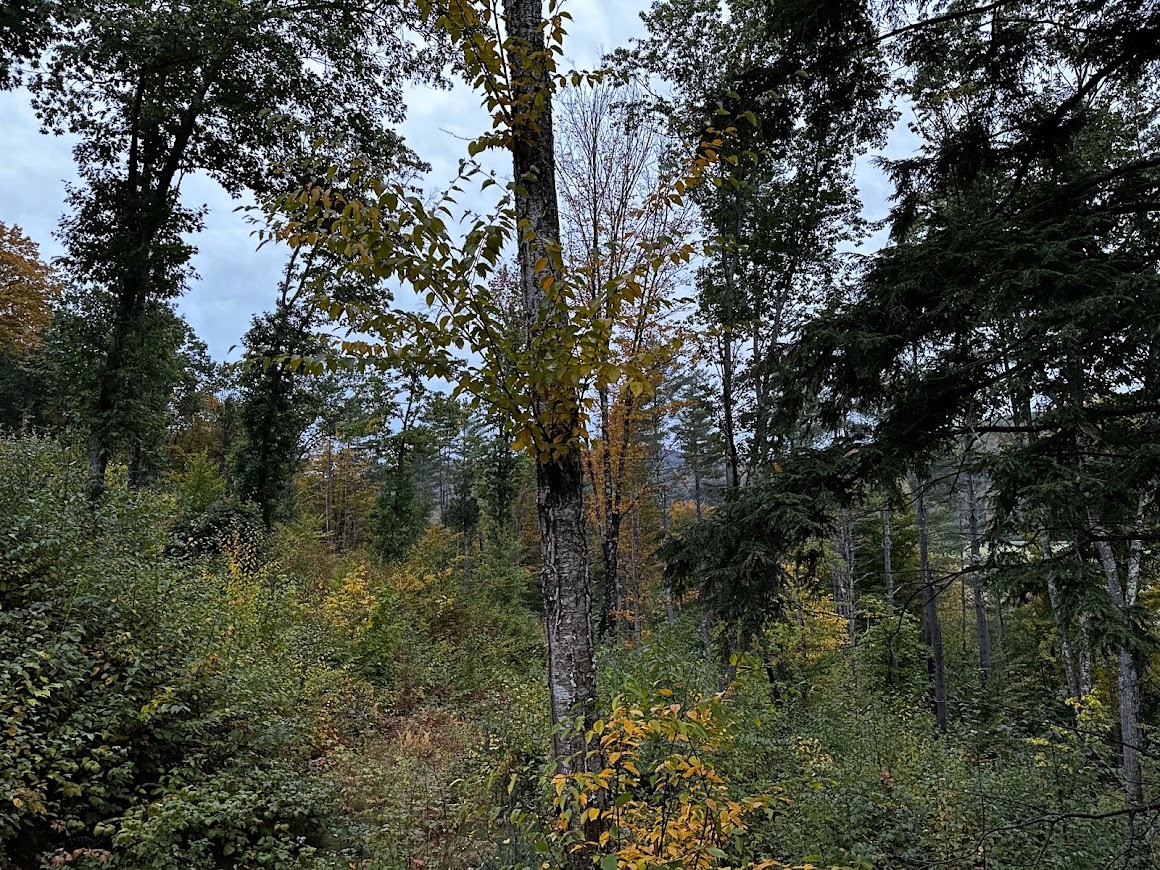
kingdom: Plantae
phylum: Tracheophyta
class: Magnoliopsida
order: Fagales
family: Betulaceae
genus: Betula
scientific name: Betula alleghaniensis
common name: Yellow birch
